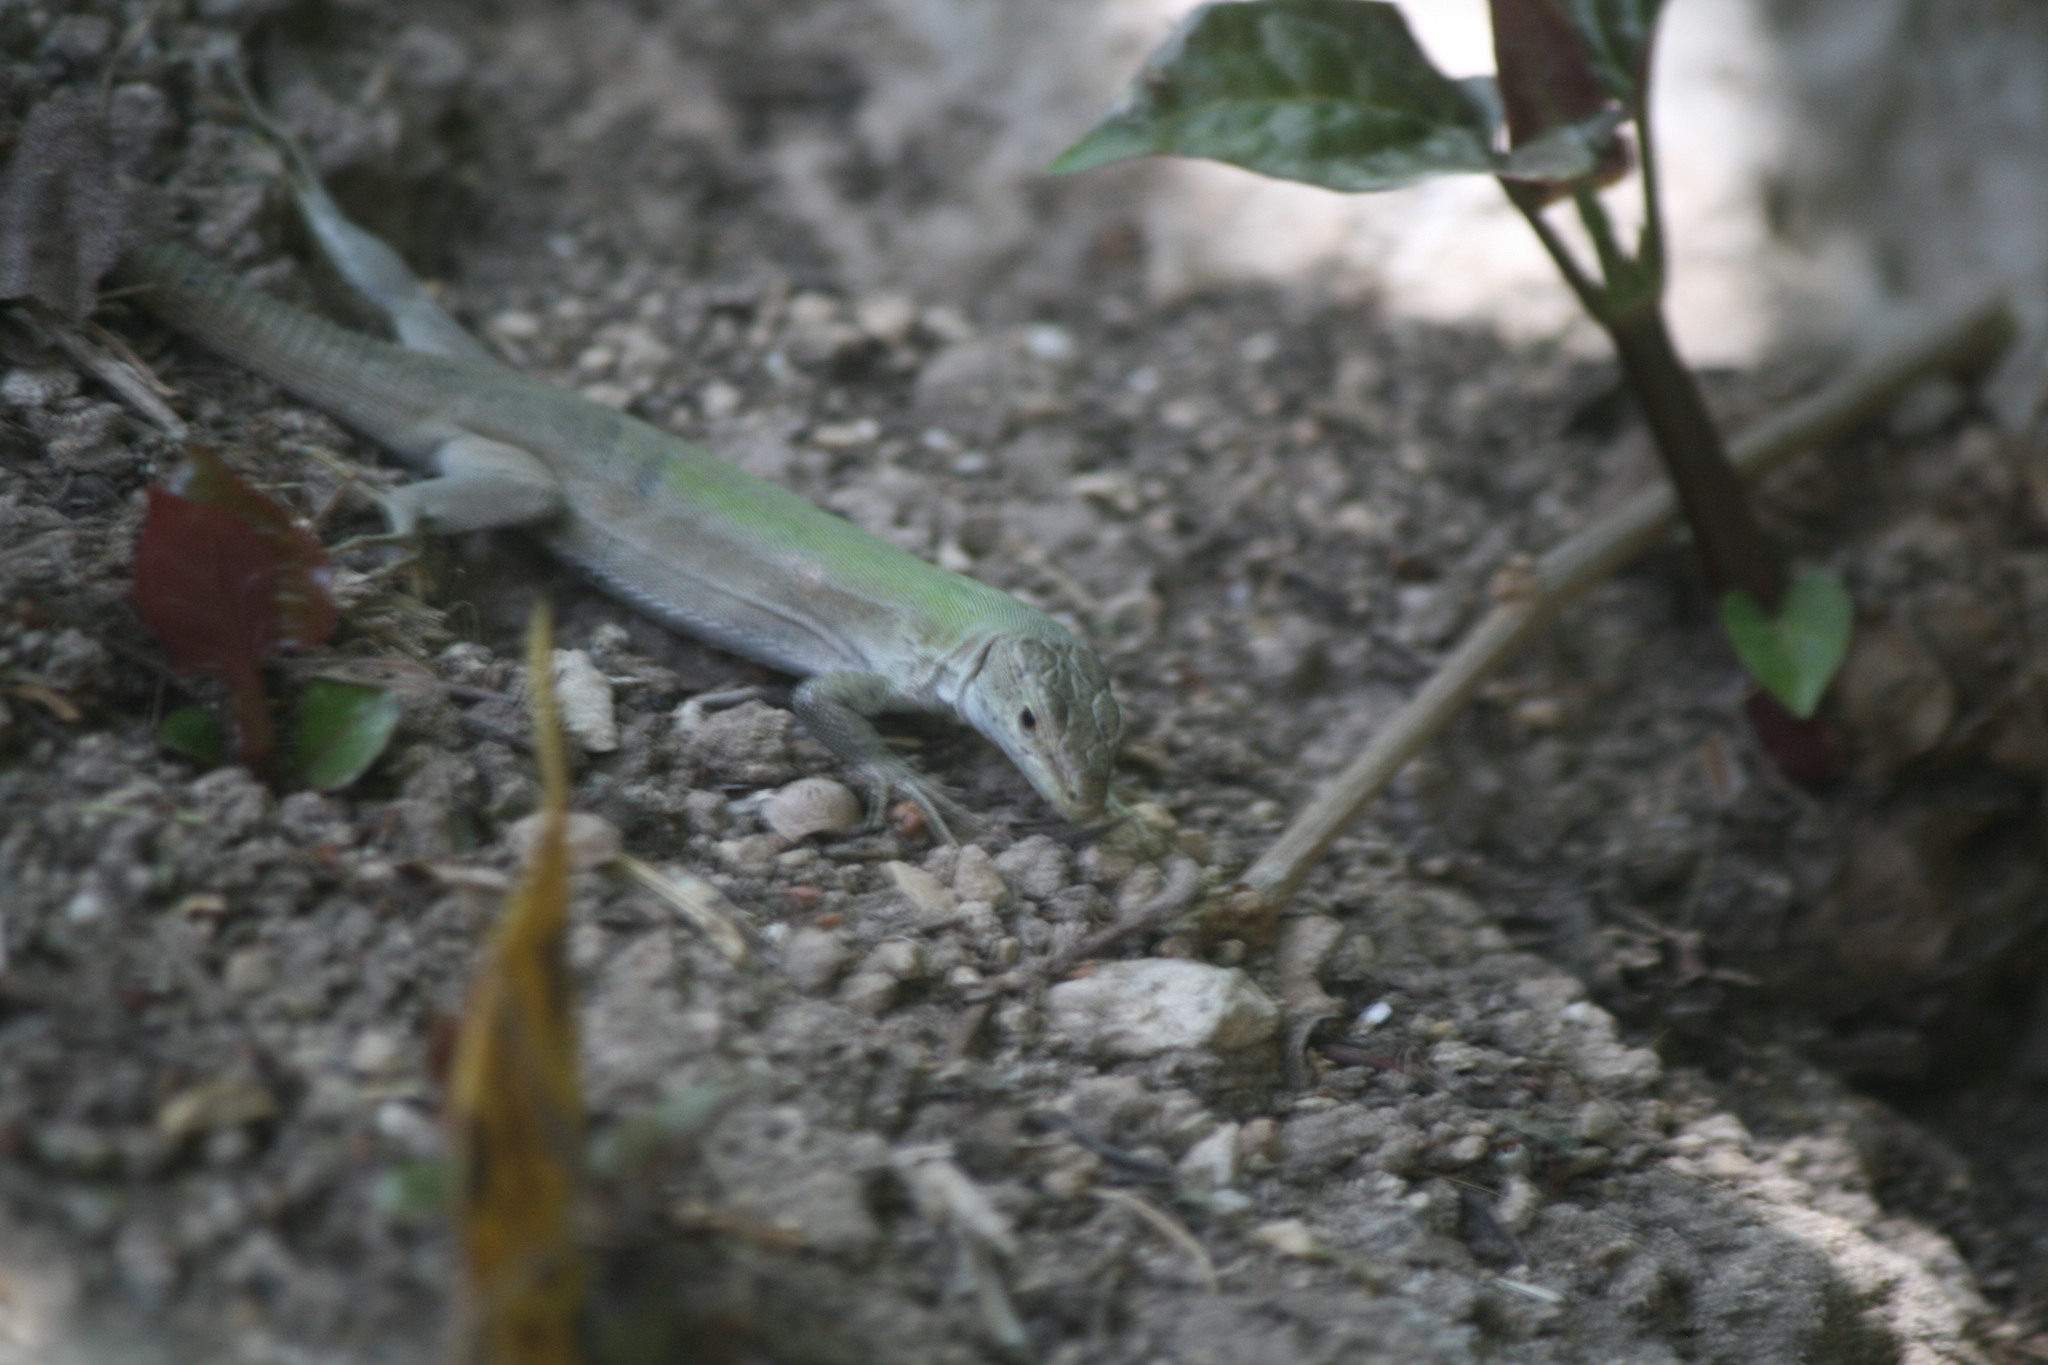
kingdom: Animalia
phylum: Chordata
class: Squamata
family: Lacertidae
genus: Podarcis
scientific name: Podarcis siculus
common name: Italian wall lizard
